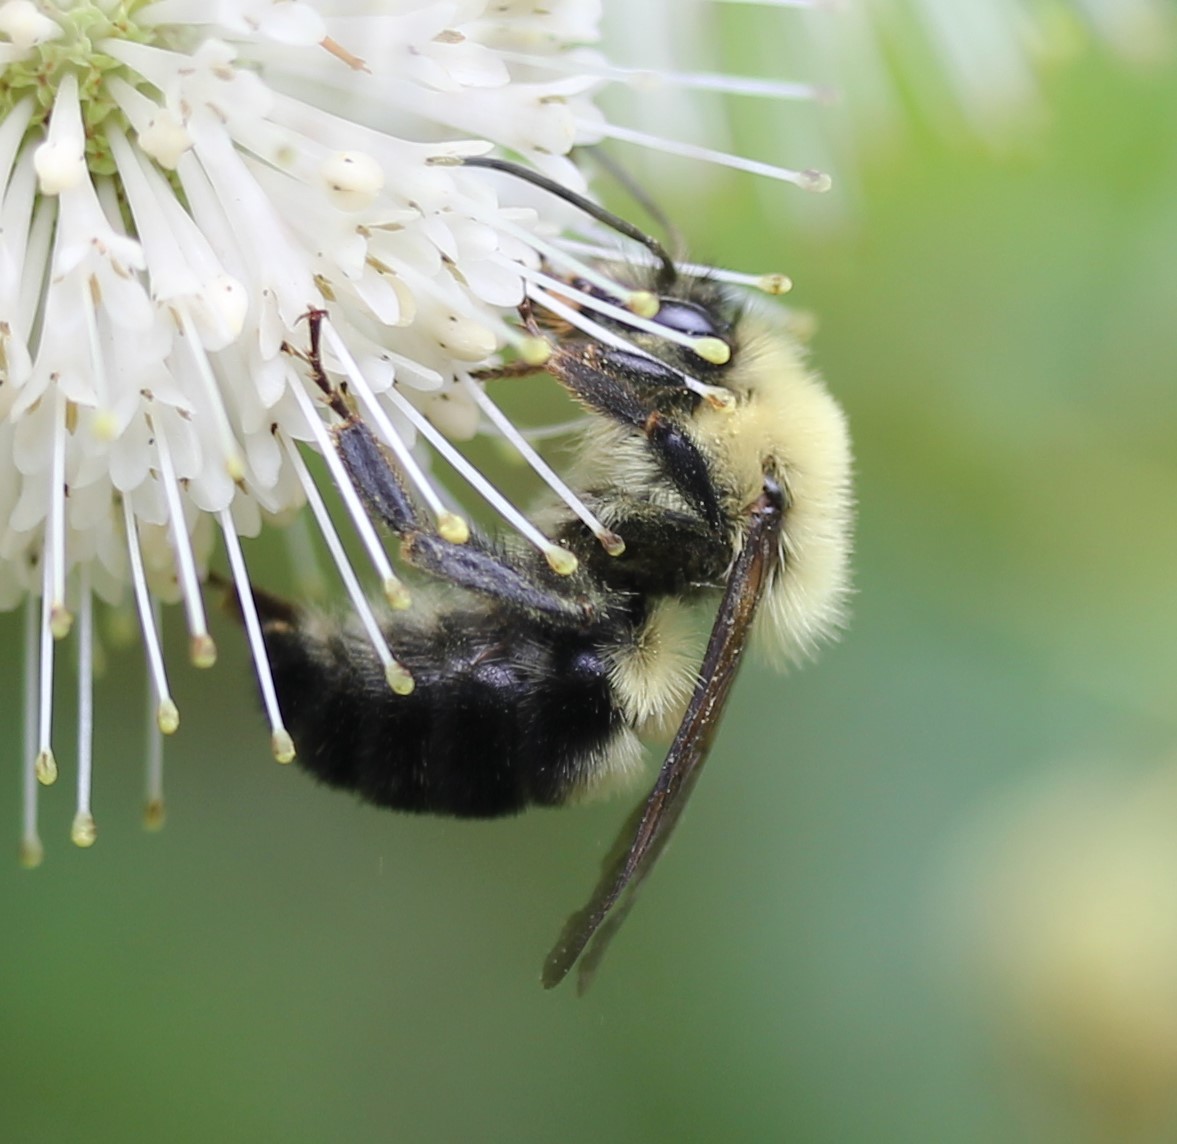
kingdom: Animalia
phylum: Arthropoda
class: Insecta
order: Hymenoptera
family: Apidae
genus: Bombus
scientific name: Bombus bimaculatus
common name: Two-spotted bumble bee
